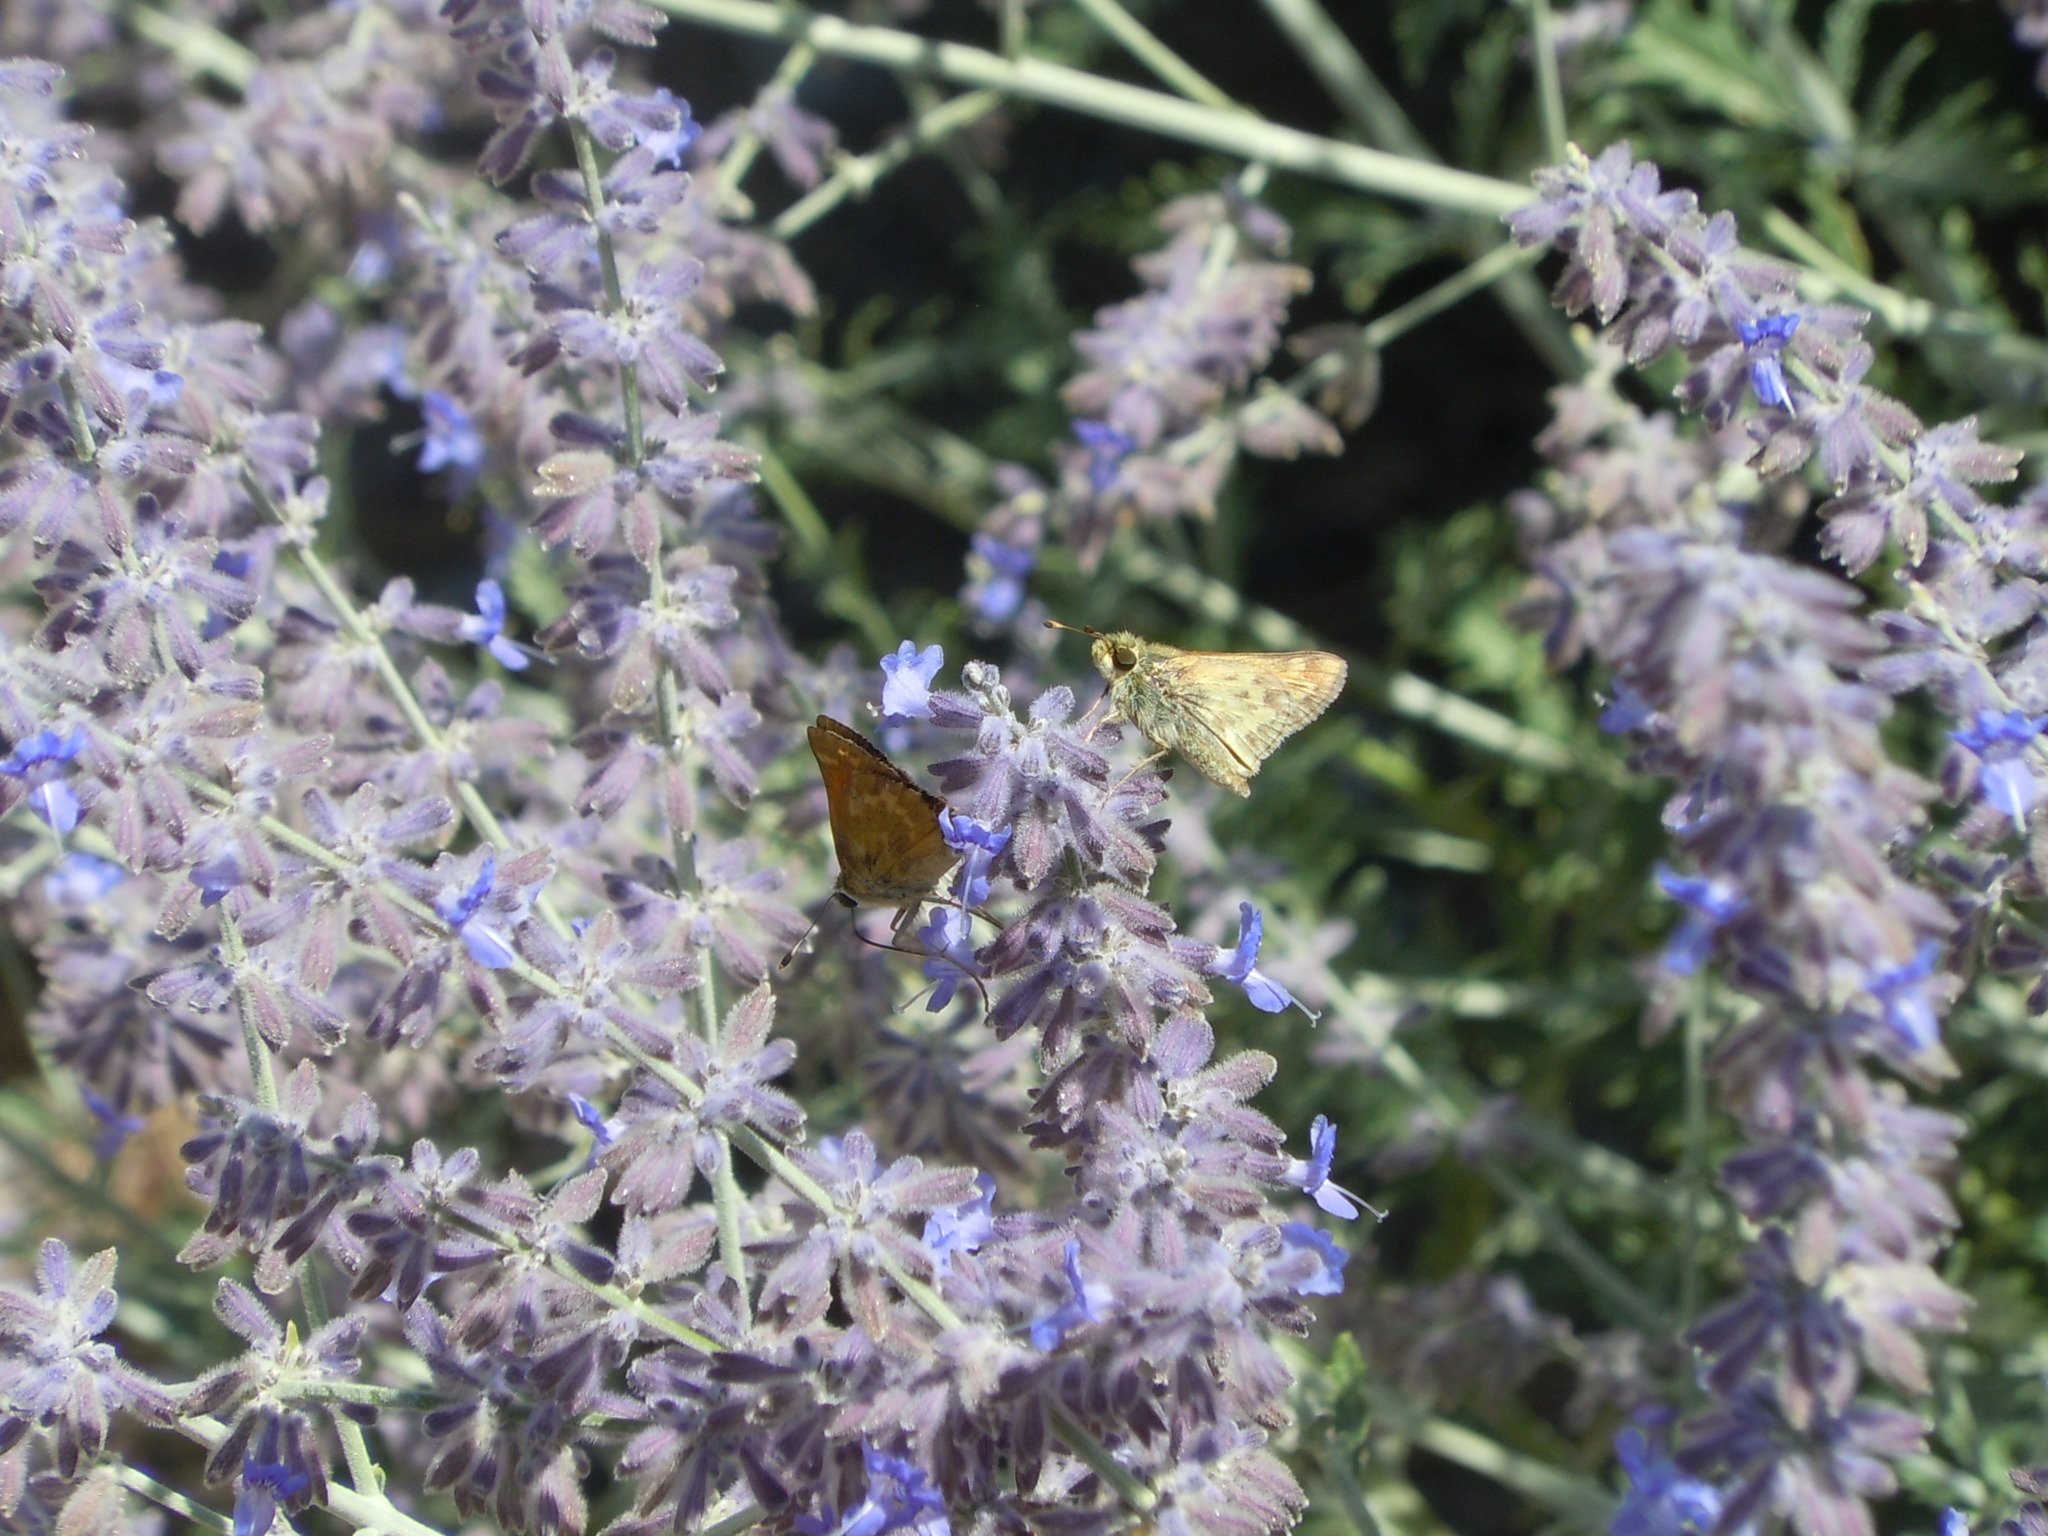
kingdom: Animalia
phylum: Arthropoda
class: Insecta
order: Lepidoptera
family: Hesperiidae
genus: Atalopedes
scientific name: Atalopedes campestris
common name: Sachem
